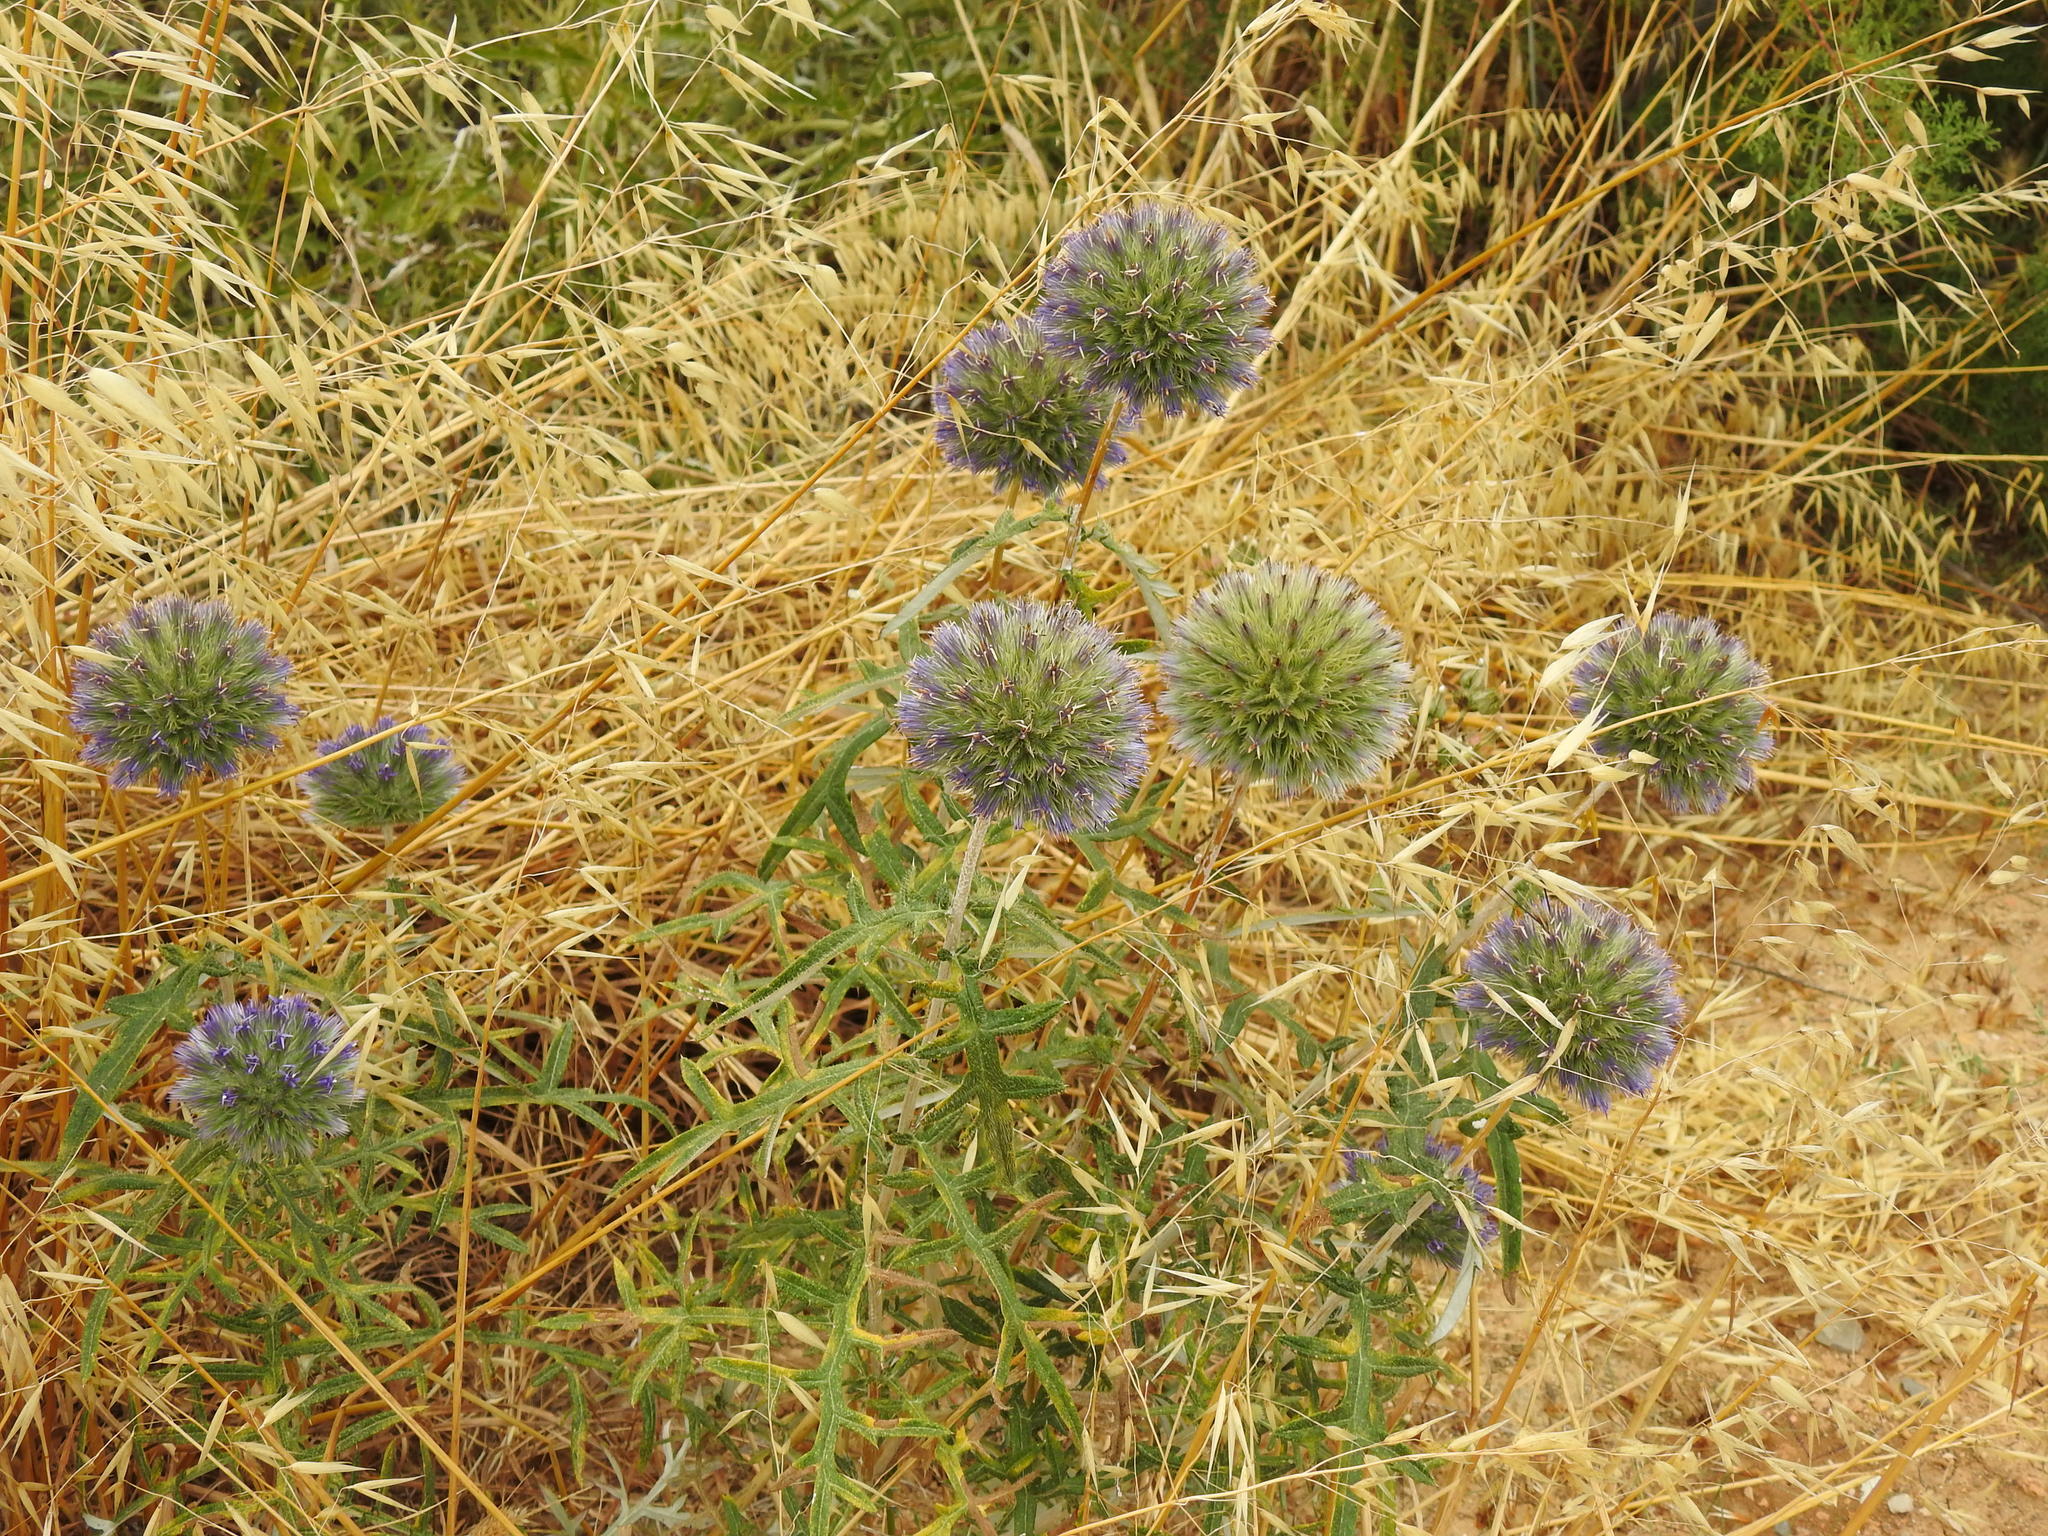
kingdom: Plantae
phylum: Tracheophyta
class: Magnoliopsida
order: Asterales
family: Asteraceae
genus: Echinops
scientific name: Echinops strigosus
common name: Rough-leaf globe thistle
